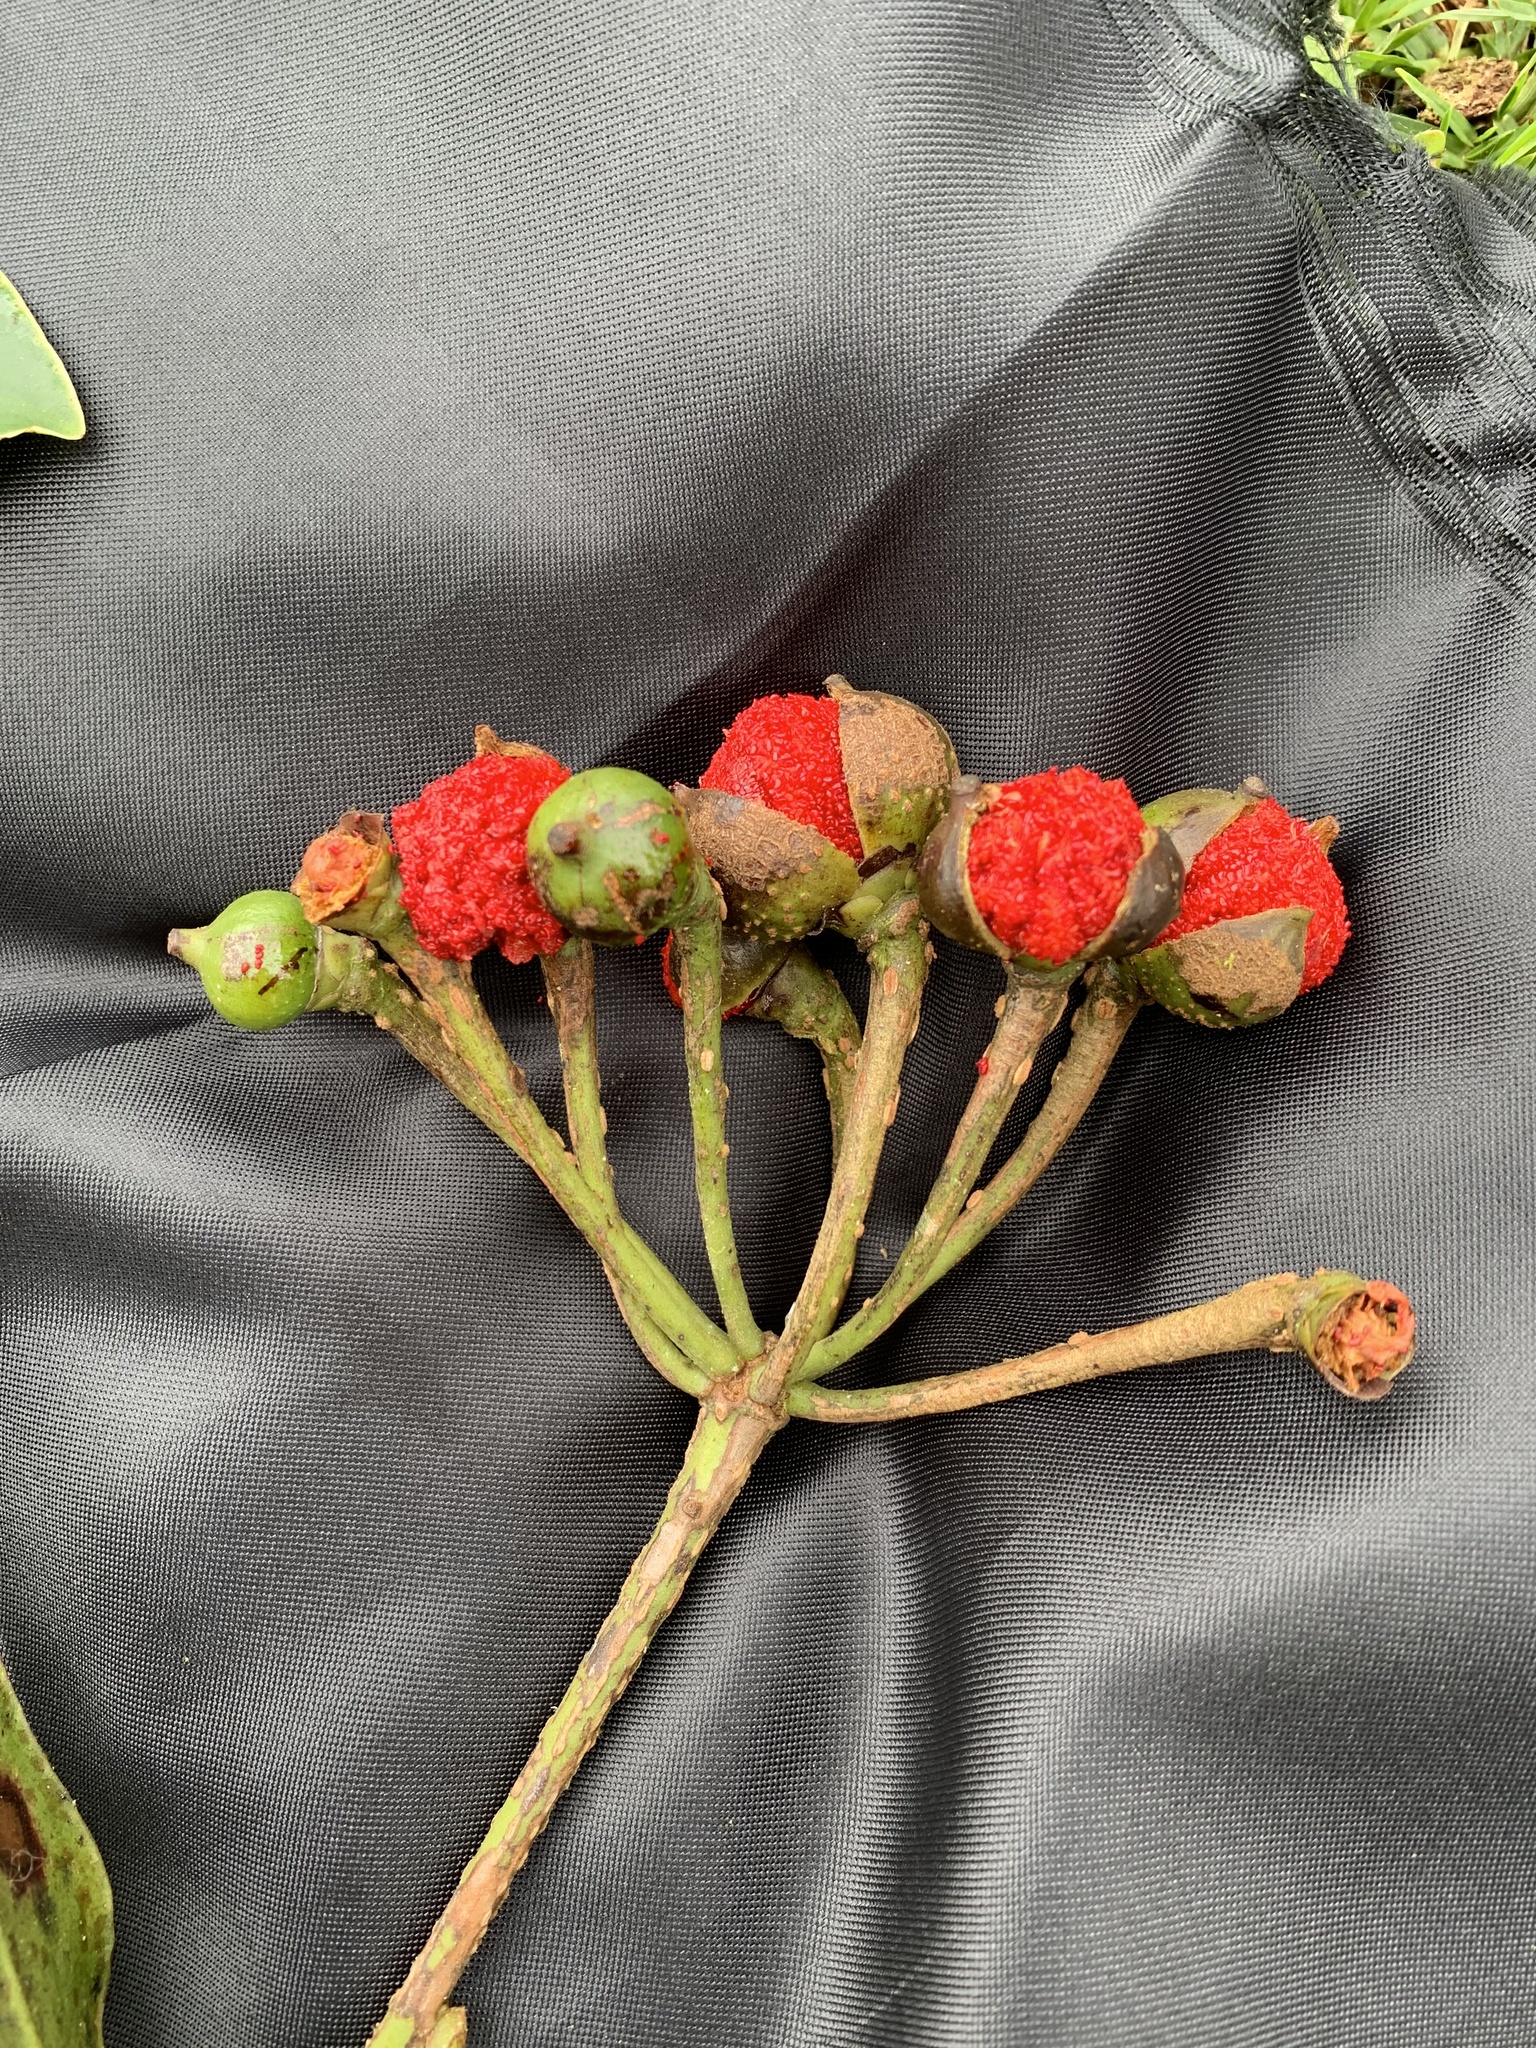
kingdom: Plantae
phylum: Tracheophyta
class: Magnoliopsida
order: Ericales
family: Marcgraviaceae
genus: Marcgravia
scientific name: Marcgravia brownei
